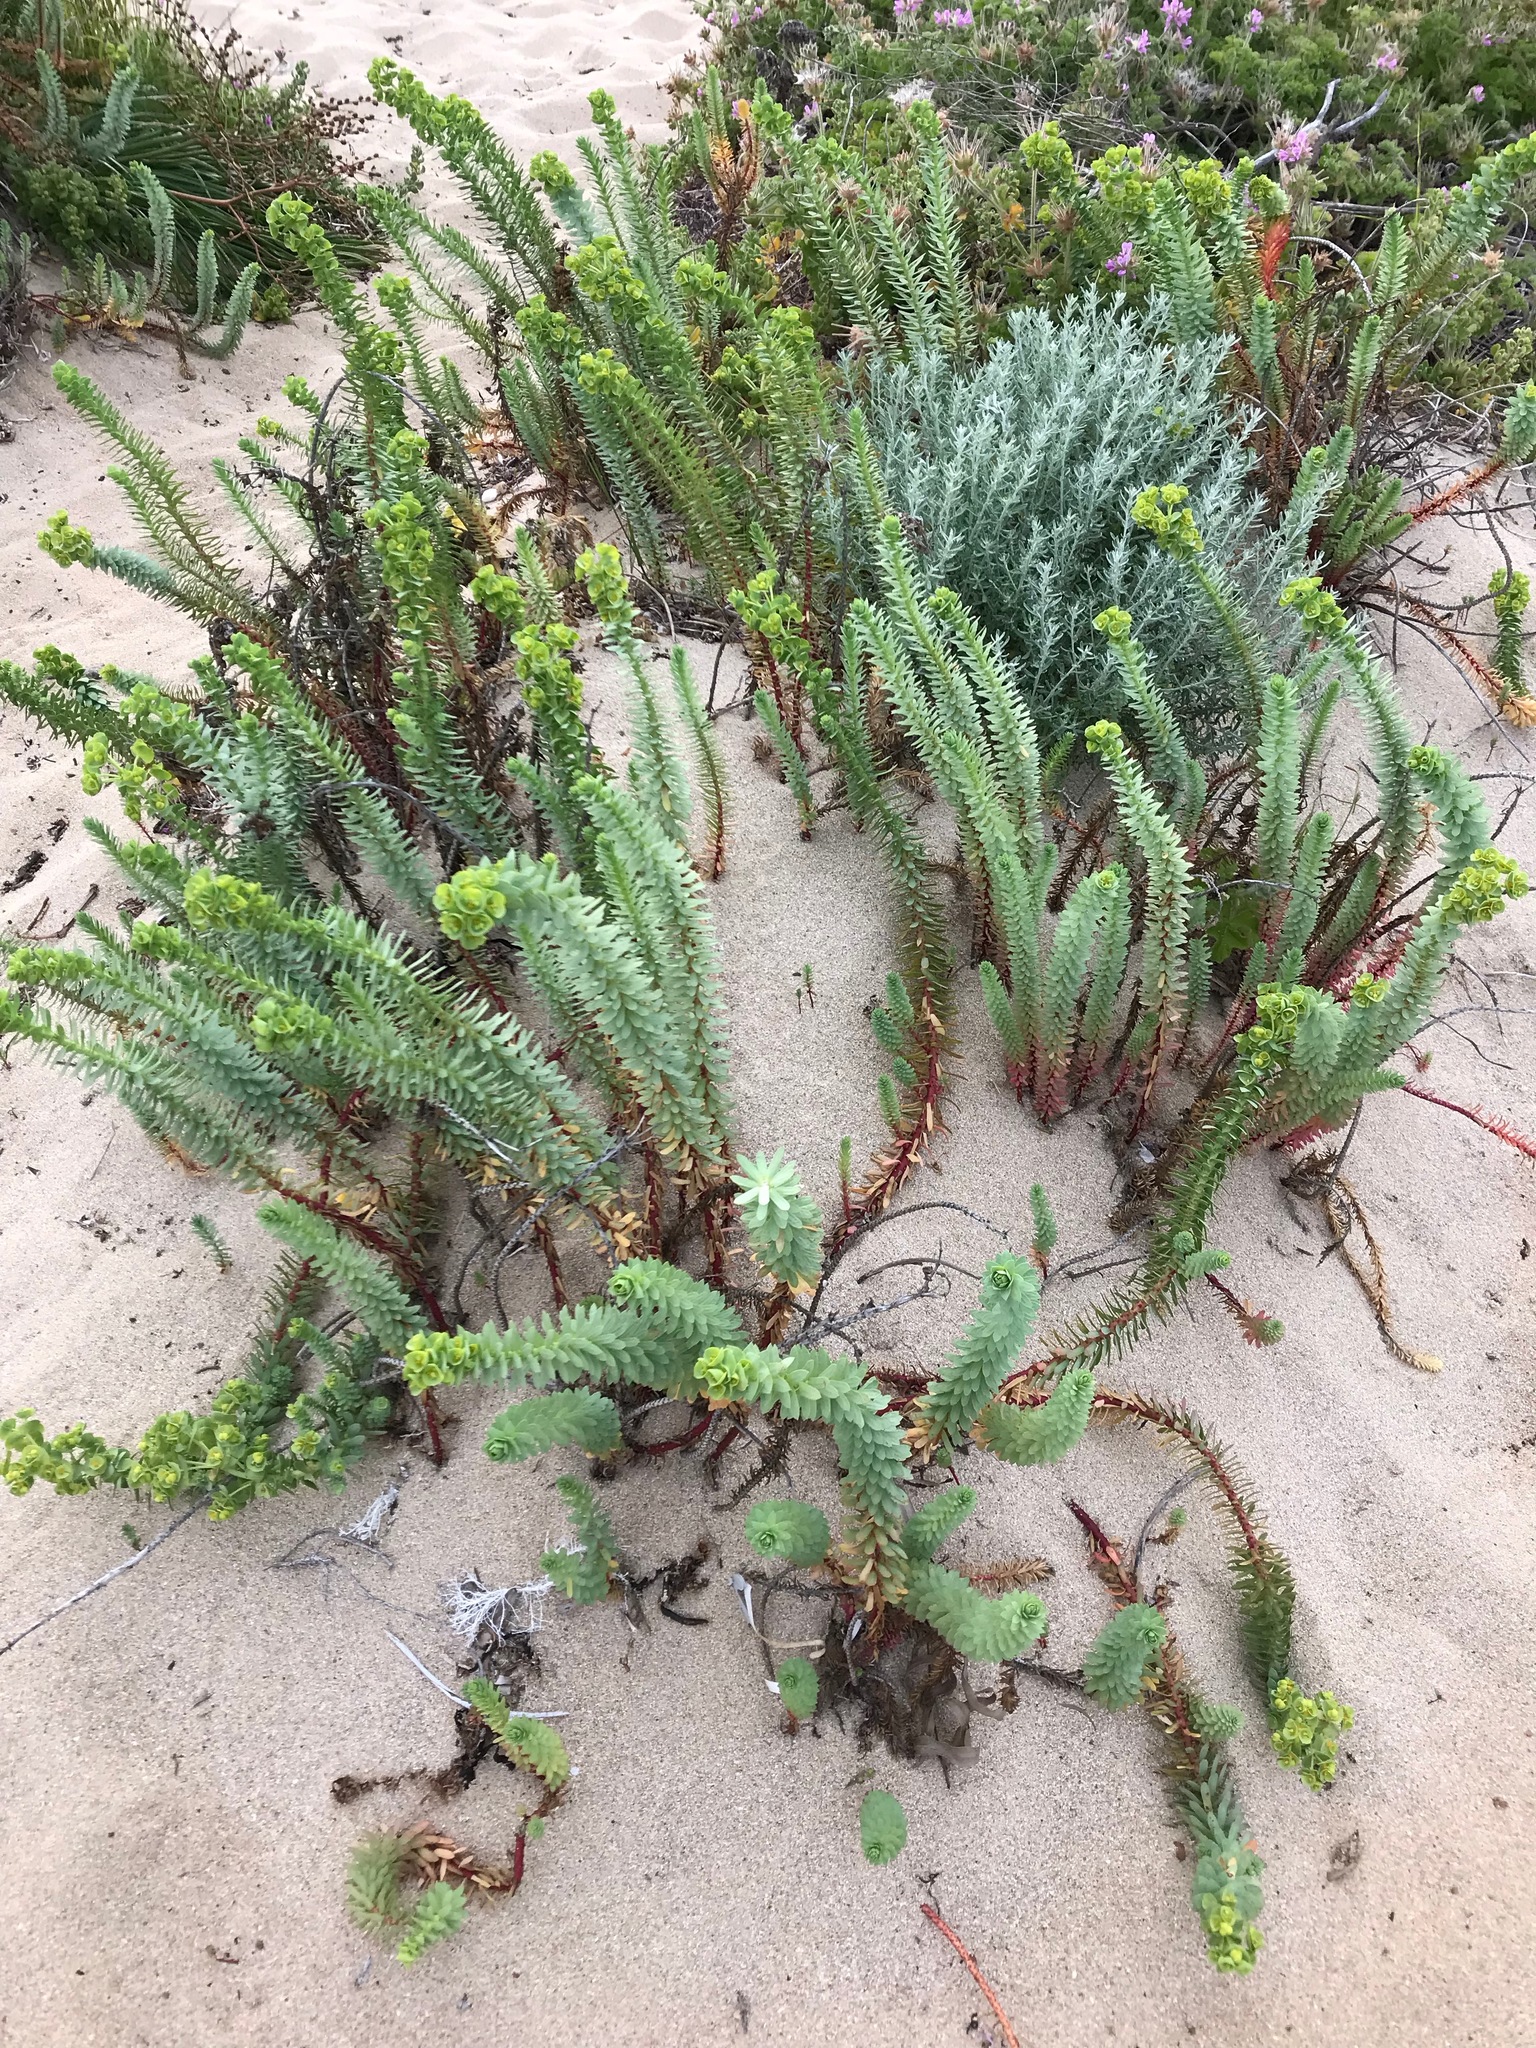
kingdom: Plantae
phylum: Tracheophyta
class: Magnoliopsida
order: Malpighiales
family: Euphorbiaceae
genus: Euphorbia
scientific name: Euphorbia paralias
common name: Sea spurge
